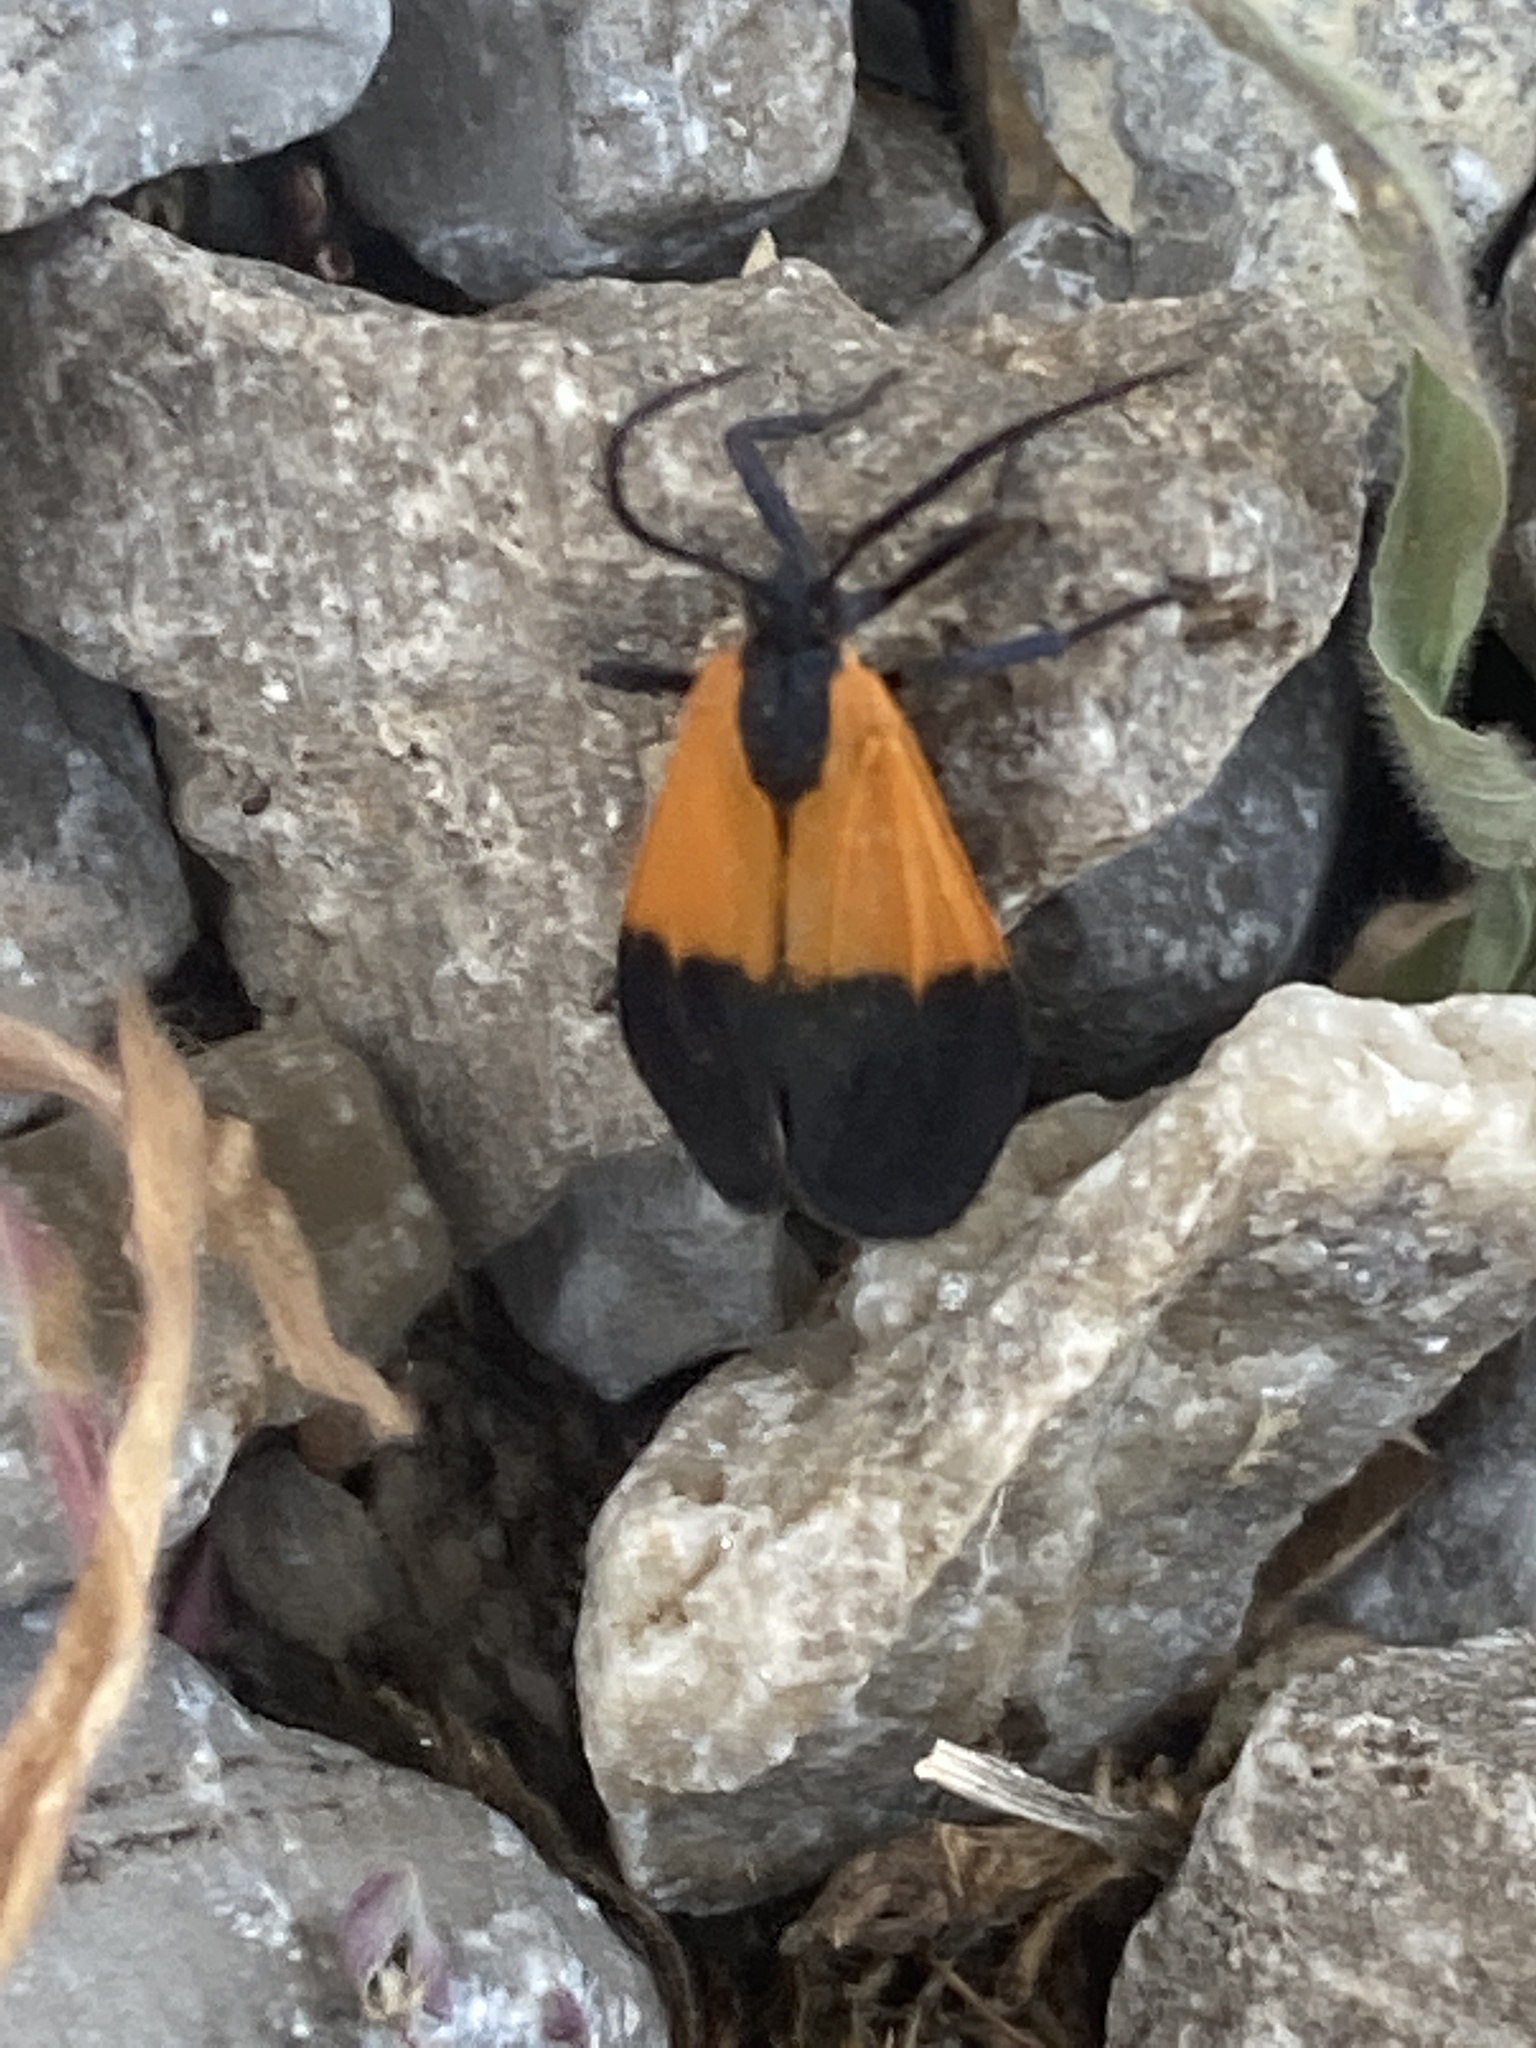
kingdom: Animalia
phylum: Arthropoda
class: Insecta
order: Lepidoptera
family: Erebidae
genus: Lycomorpha
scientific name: Lycomorpha pholus
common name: Black-and-yellow lichen moth
